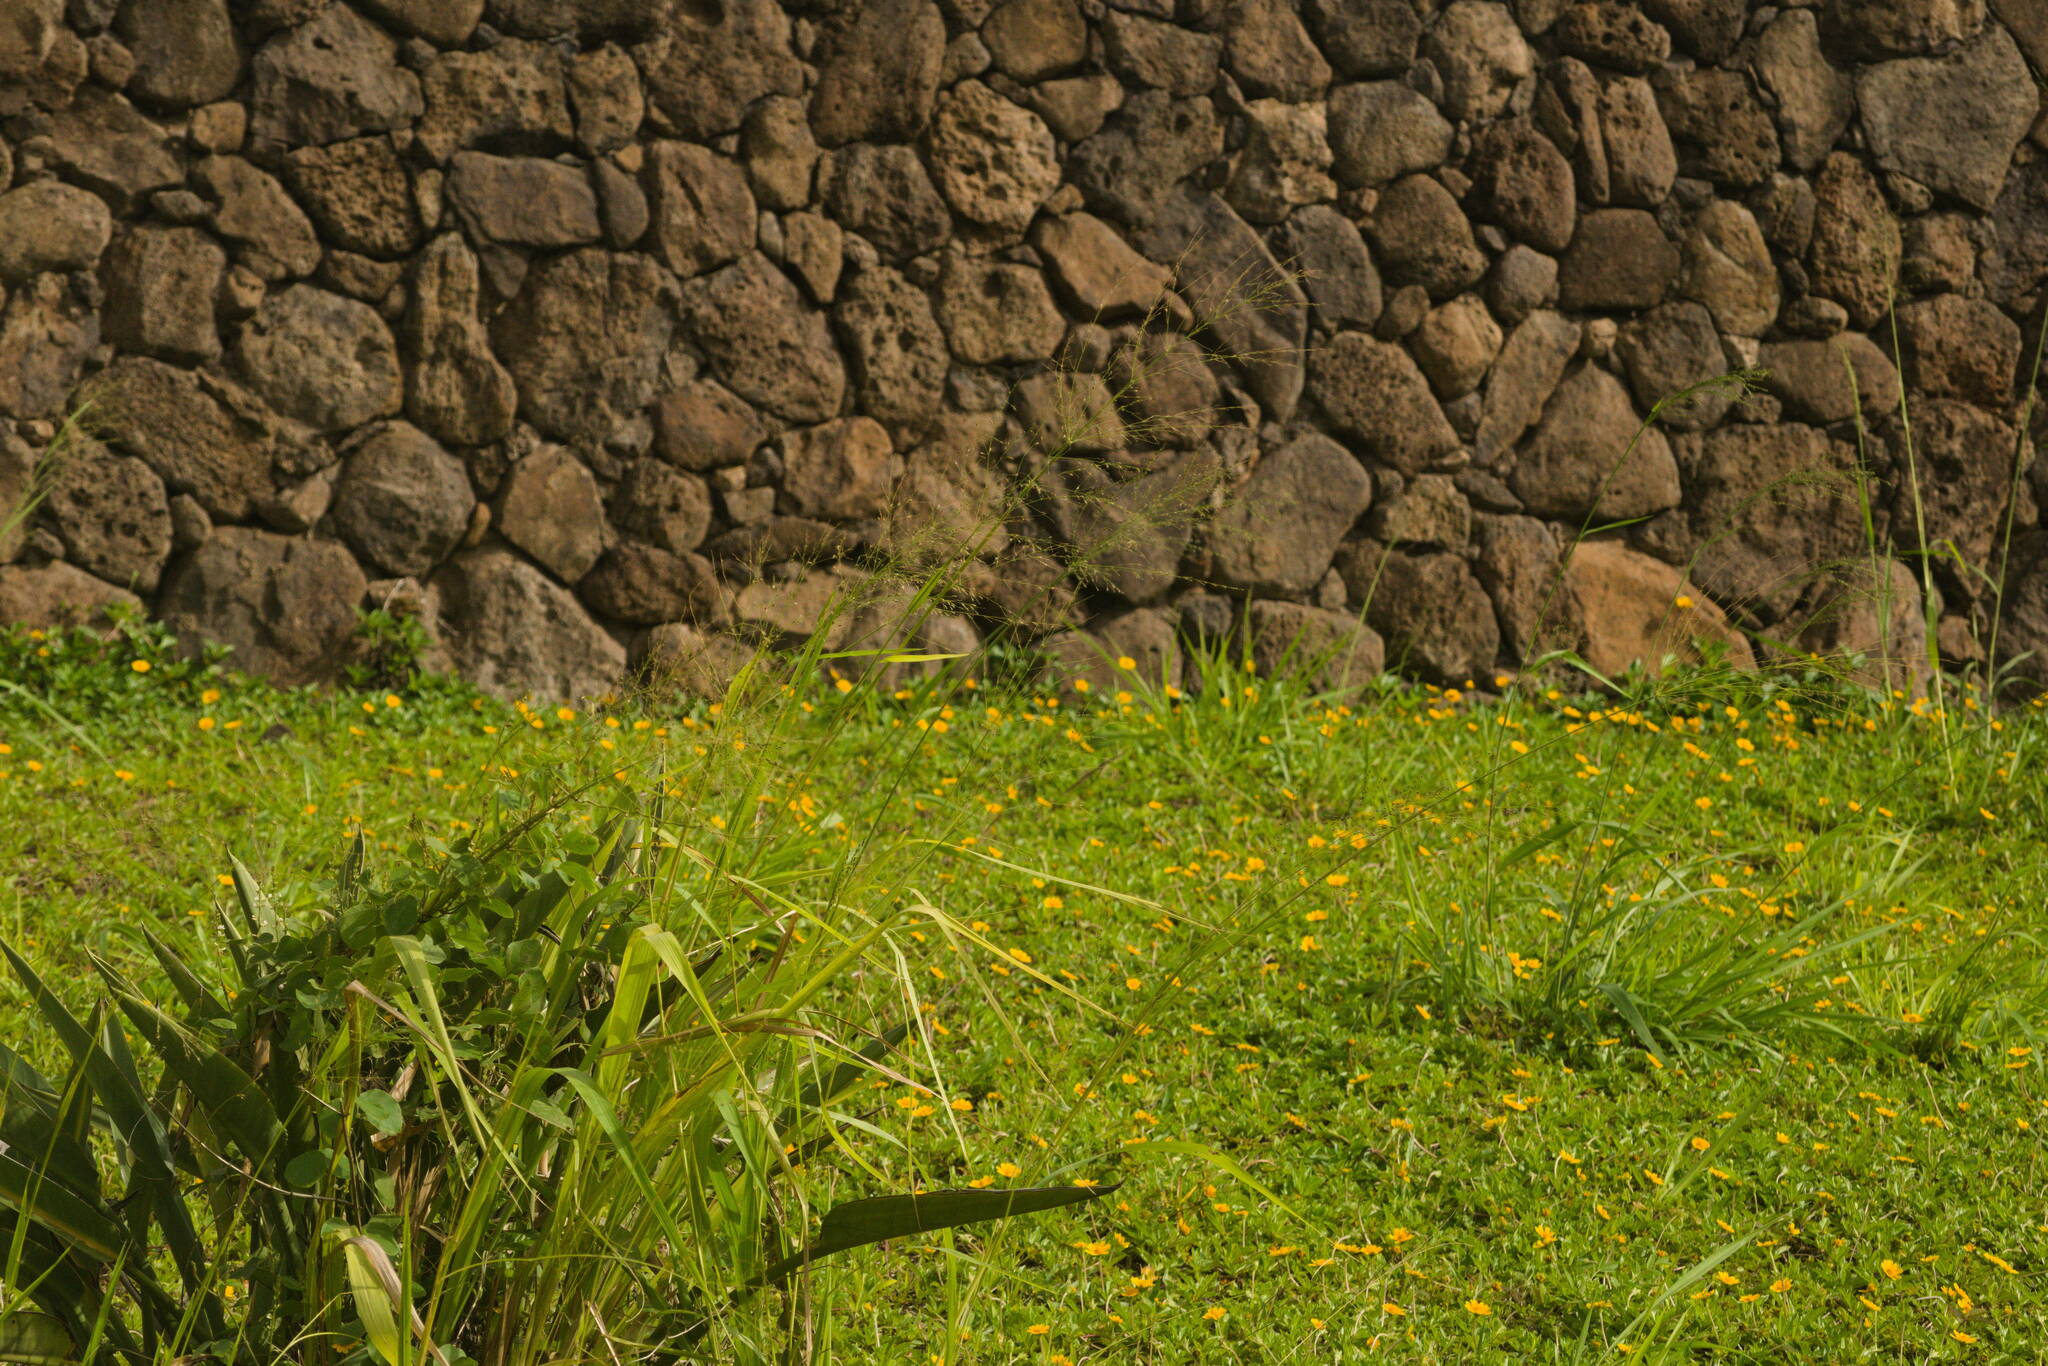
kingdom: Plantae
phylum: Tracheophyta
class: Liliopsida
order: Poales
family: Poaceae
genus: Megathyrsus
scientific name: Megathyrsus maximus
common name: Guineagrass
